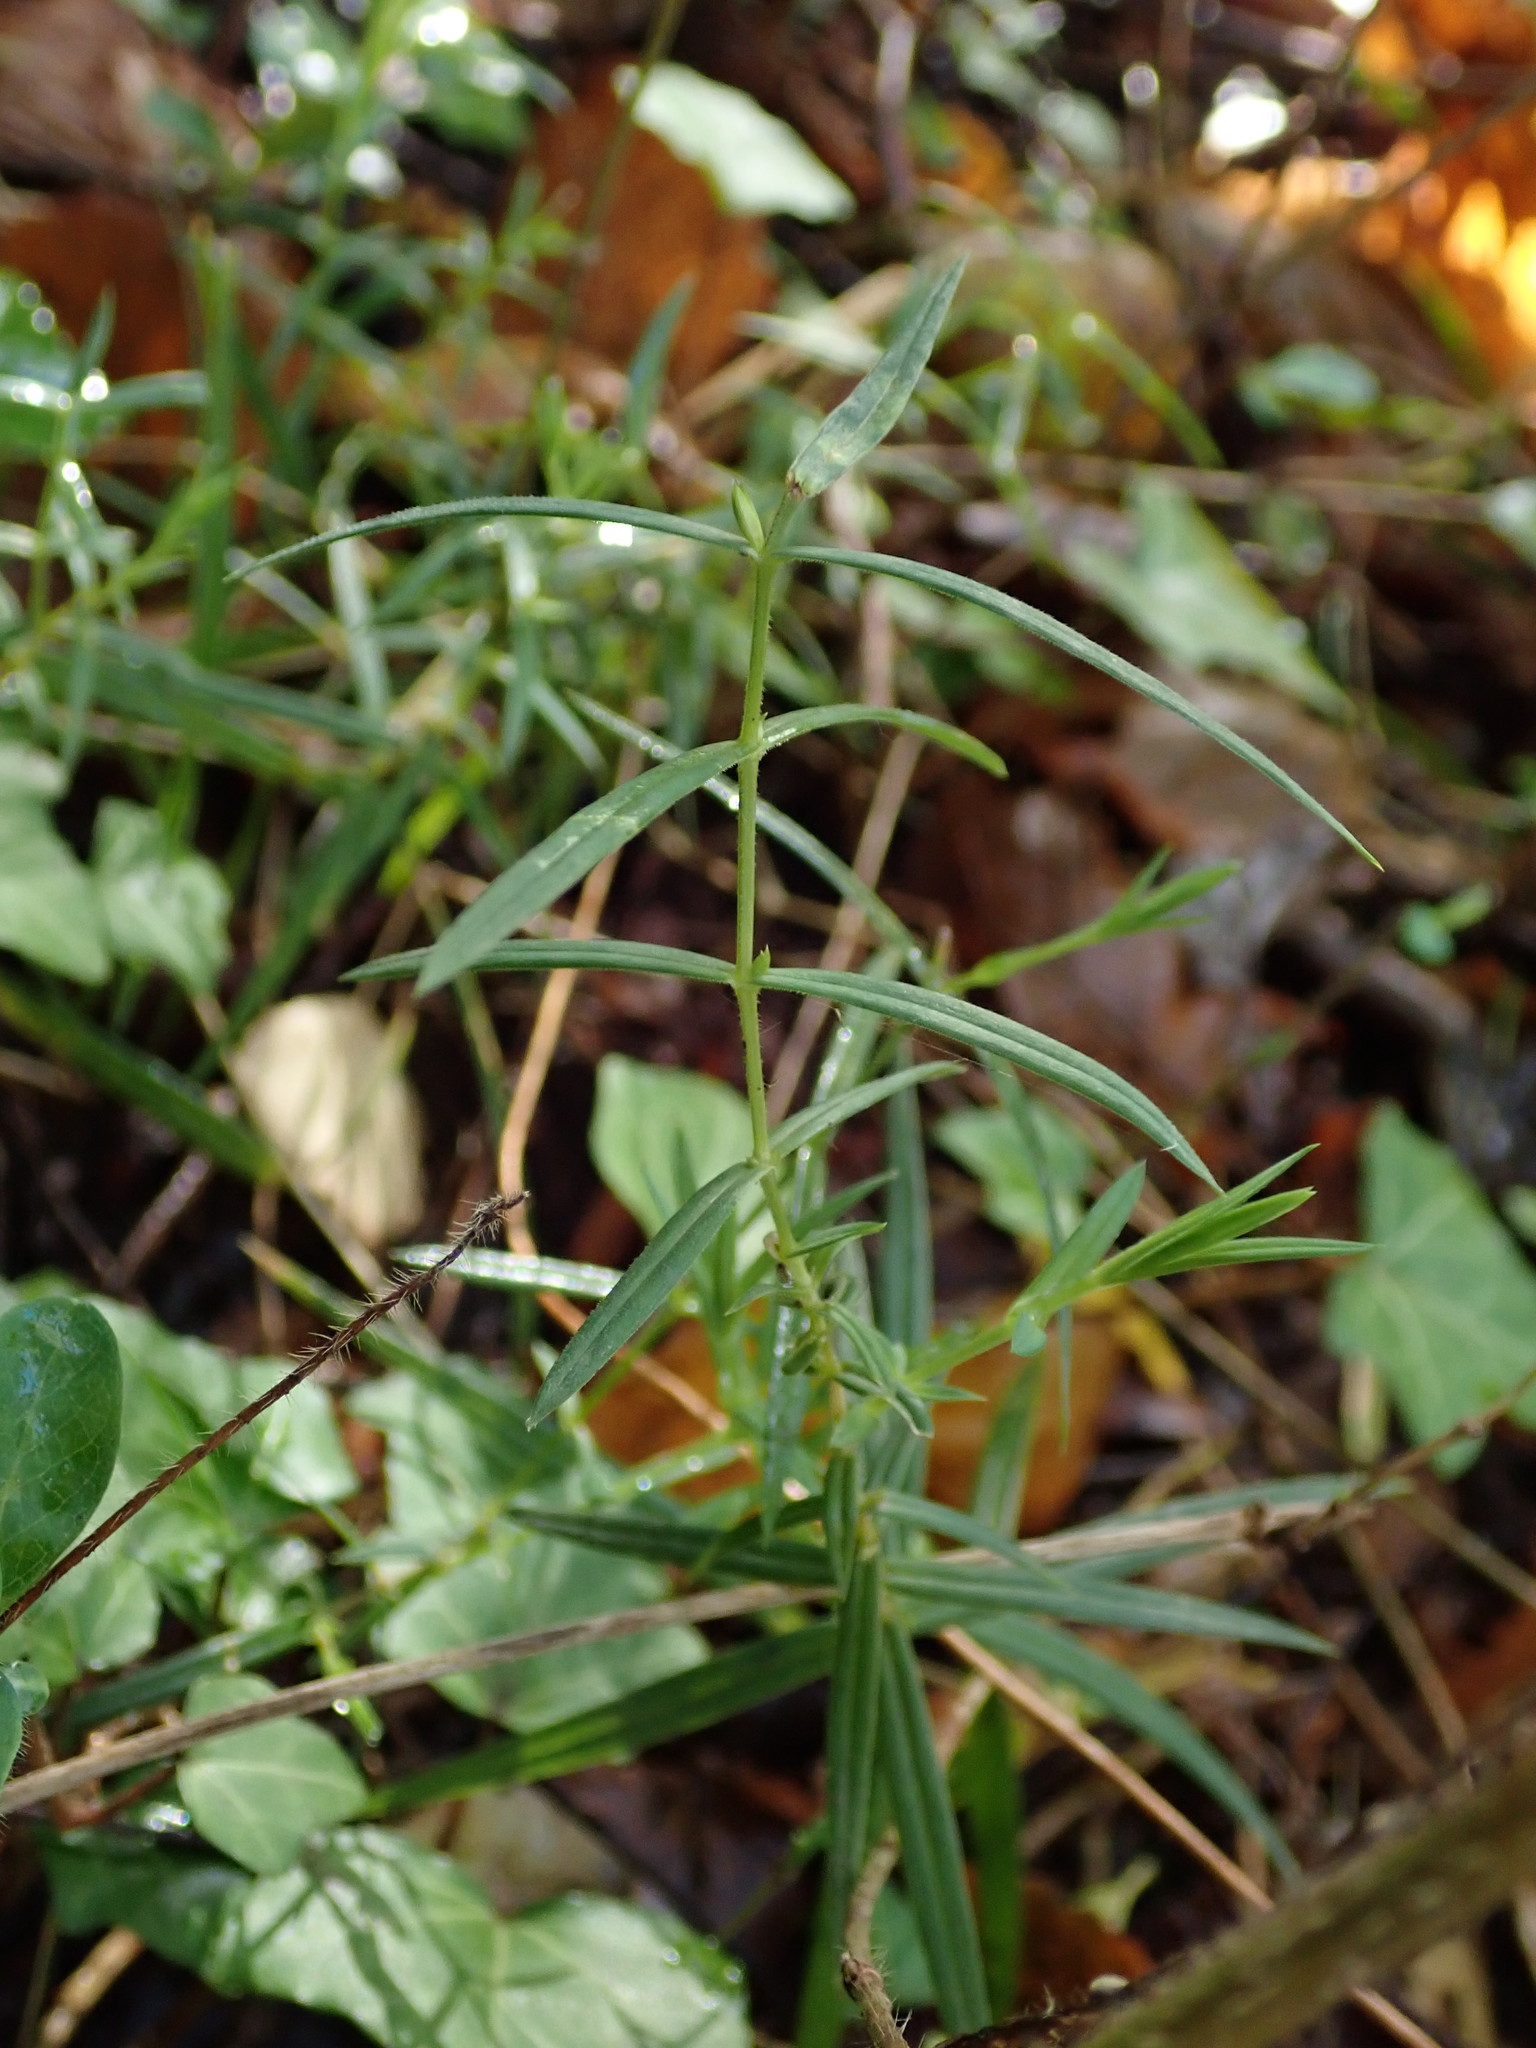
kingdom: Plantae
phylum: Tracheophyta
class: Magnoliopsida
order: Caryophyllales
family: Caryophyllaceae
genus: Rabelera
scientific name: Rabelera holostea
